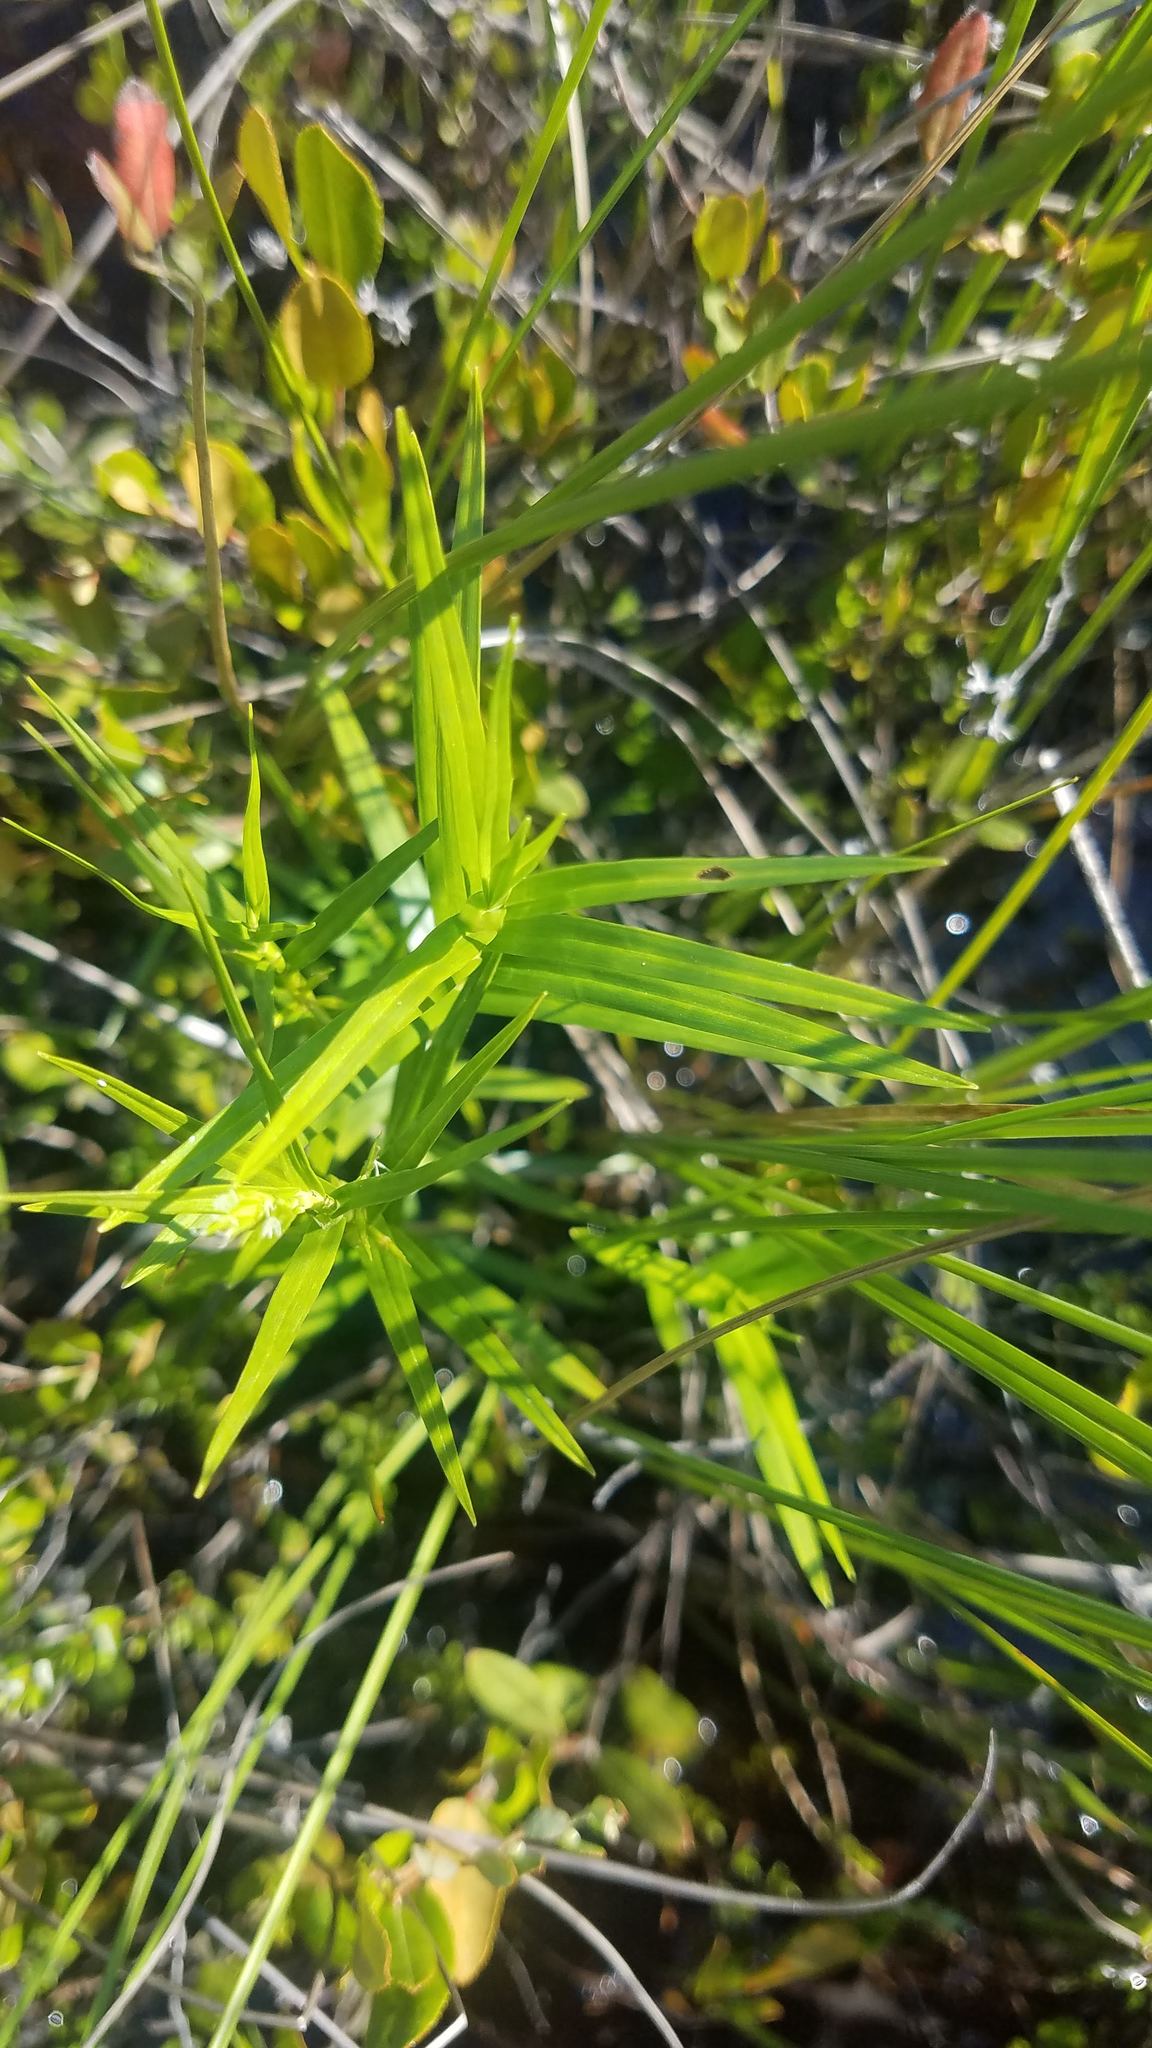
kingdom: Plantae
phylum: Tracheophyta
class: Liliopsida
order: Poales
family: Cyperaceae
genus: Dulichium
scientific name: Dulichium arundinaceum
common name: Three-way sedge
